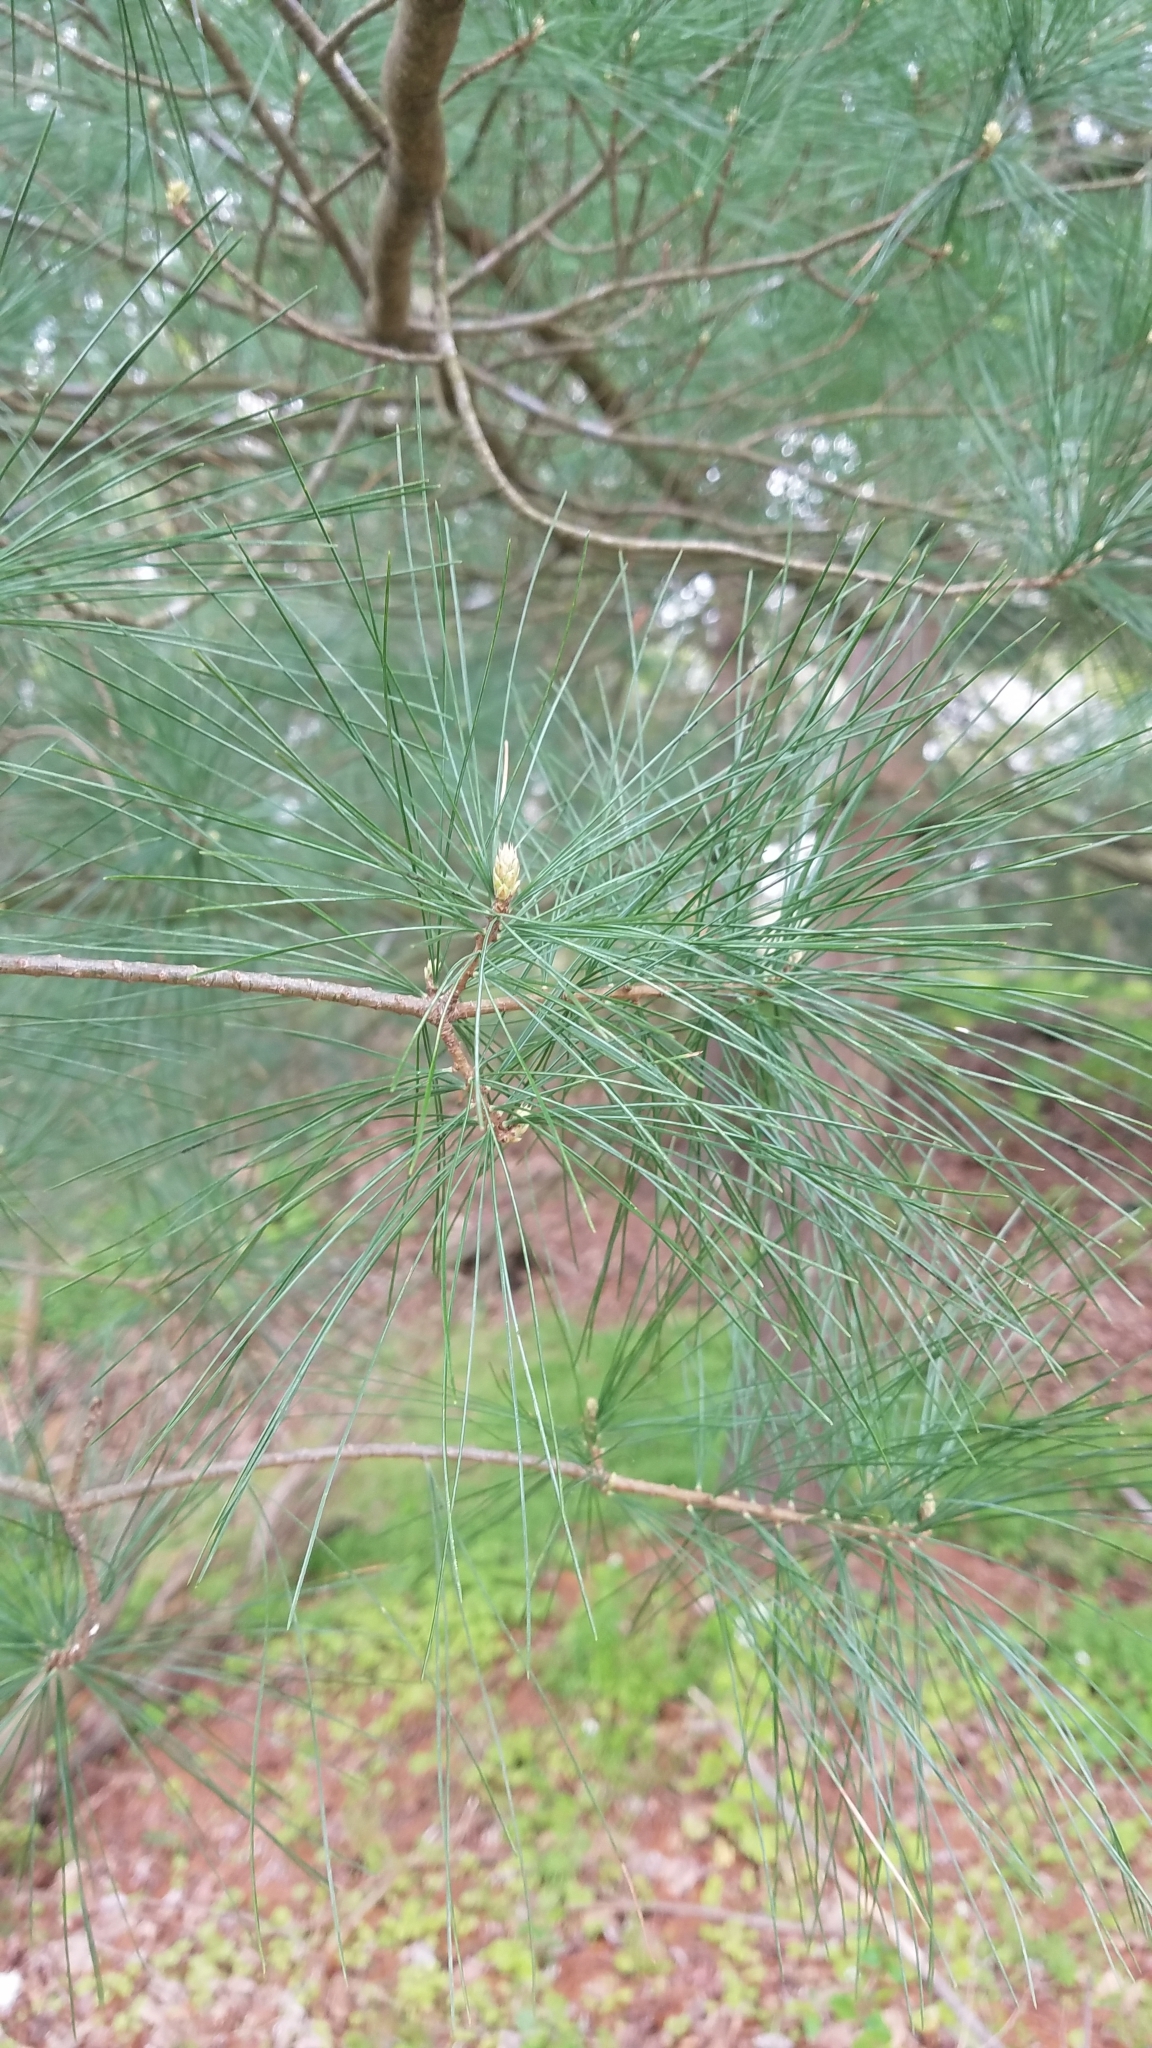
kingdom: Plantae
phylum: Tracheophyta
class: Pinopsida
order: Pinales
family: Pinaceae
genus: Pinus
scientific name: Pinus strobus
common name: Weymouth pine
